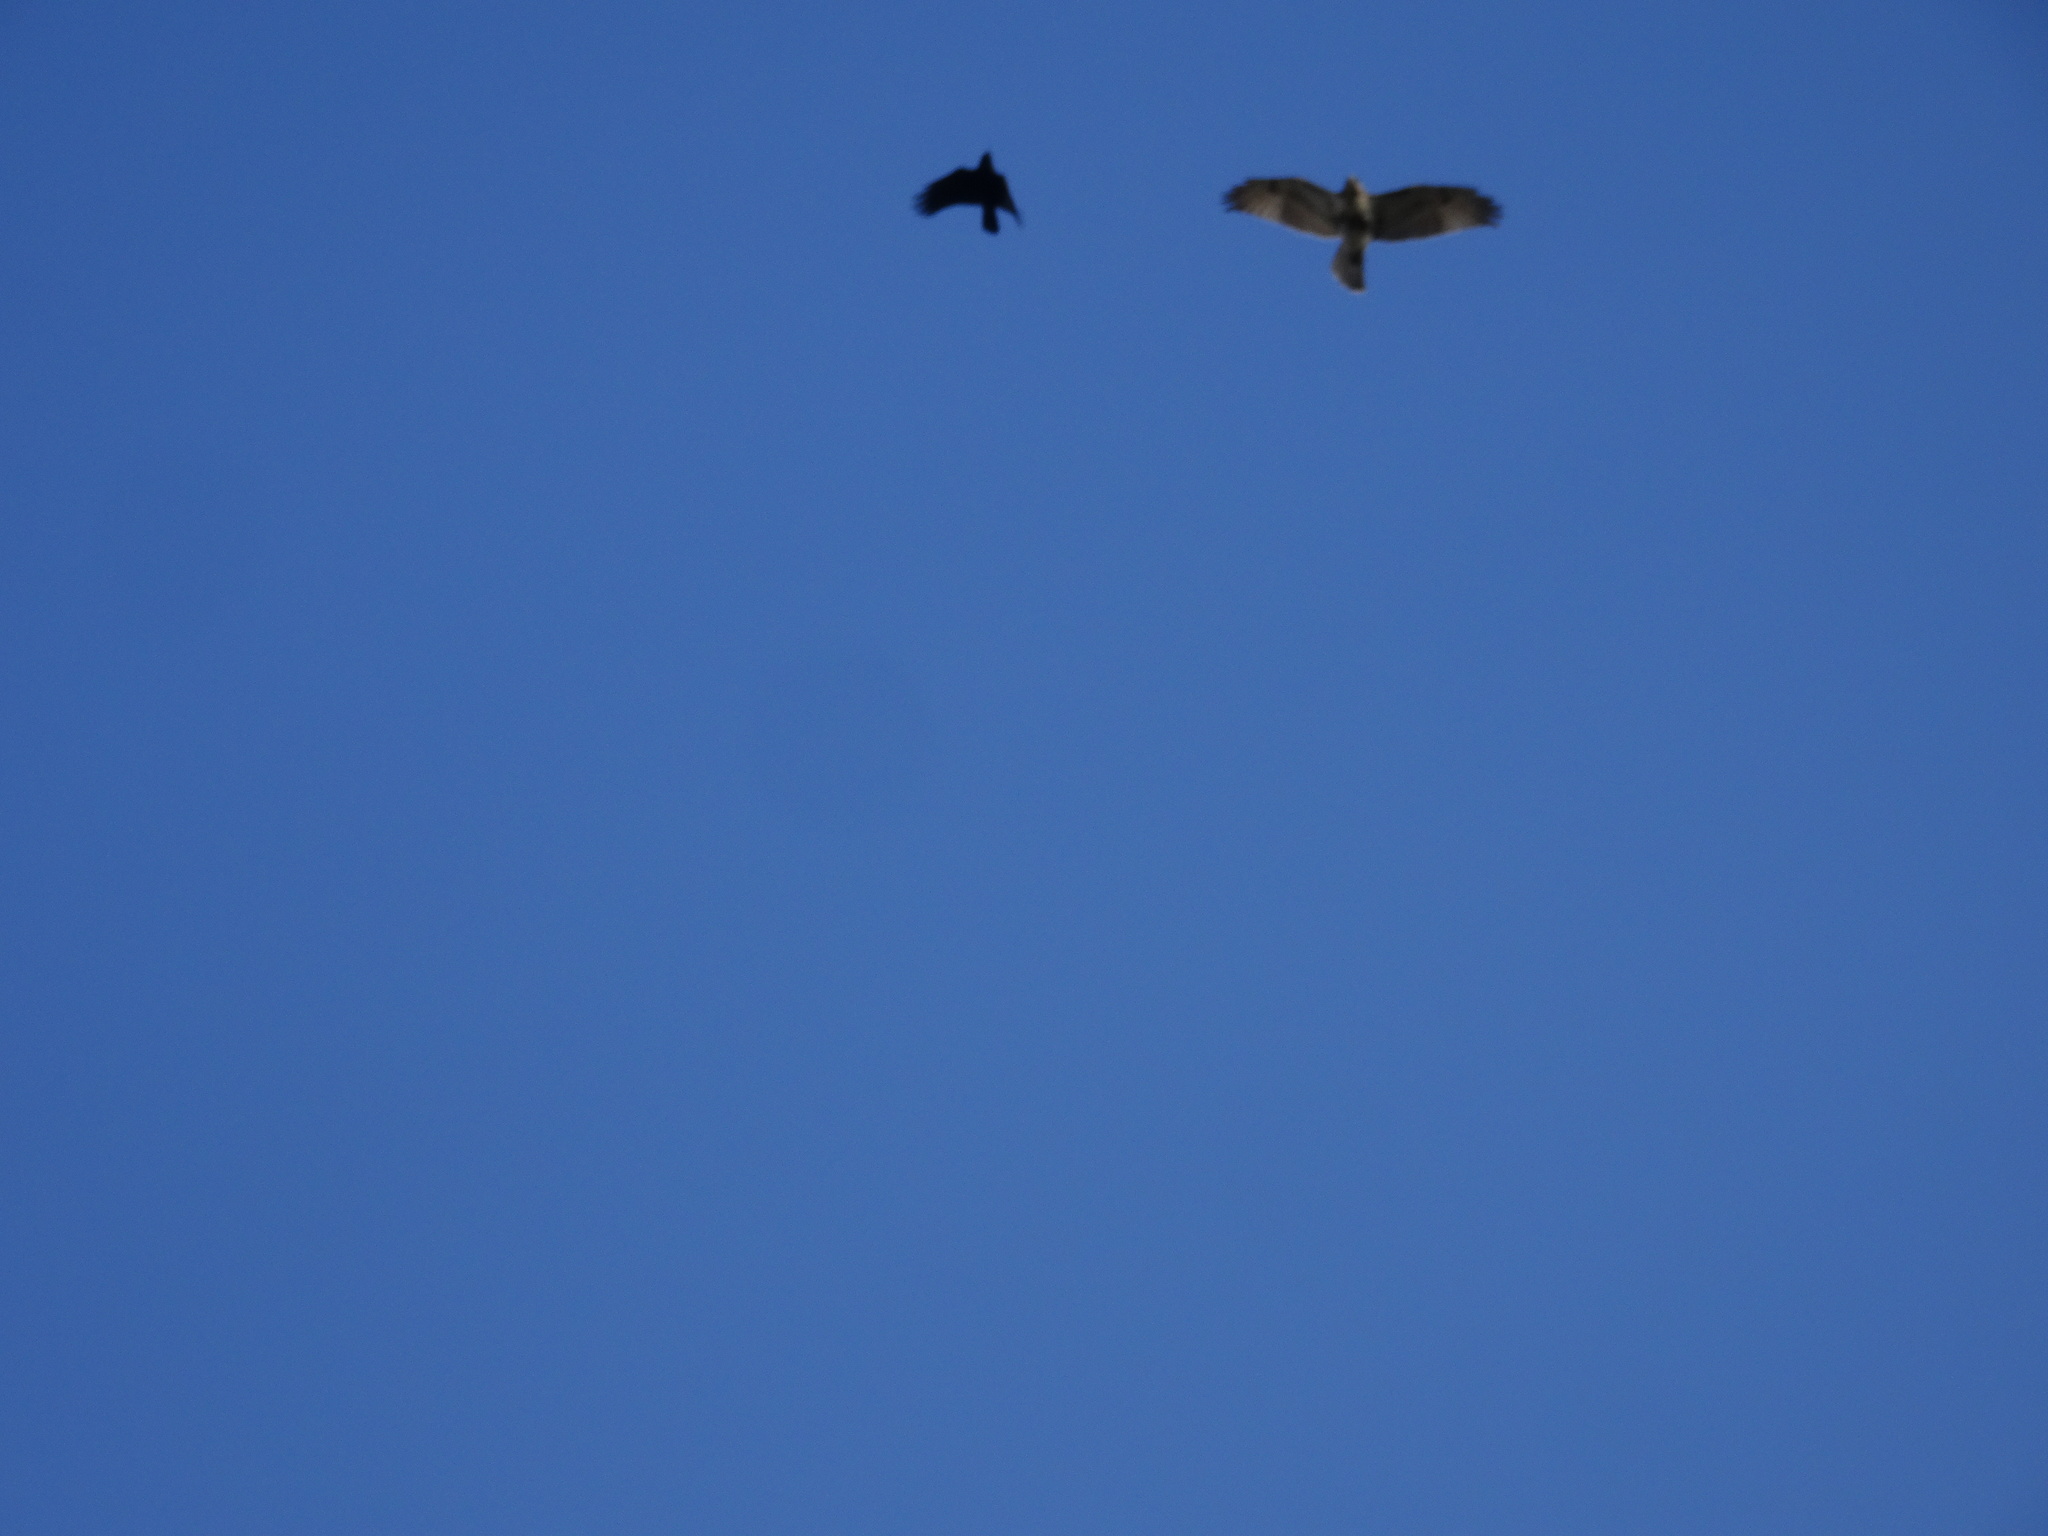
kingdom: Animalia
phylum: Chordata
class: Aves
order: Accipitriformes
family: Accipitridae
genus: Buteo
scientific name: Buteo jamaicensis
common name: Red-tailed hawk
